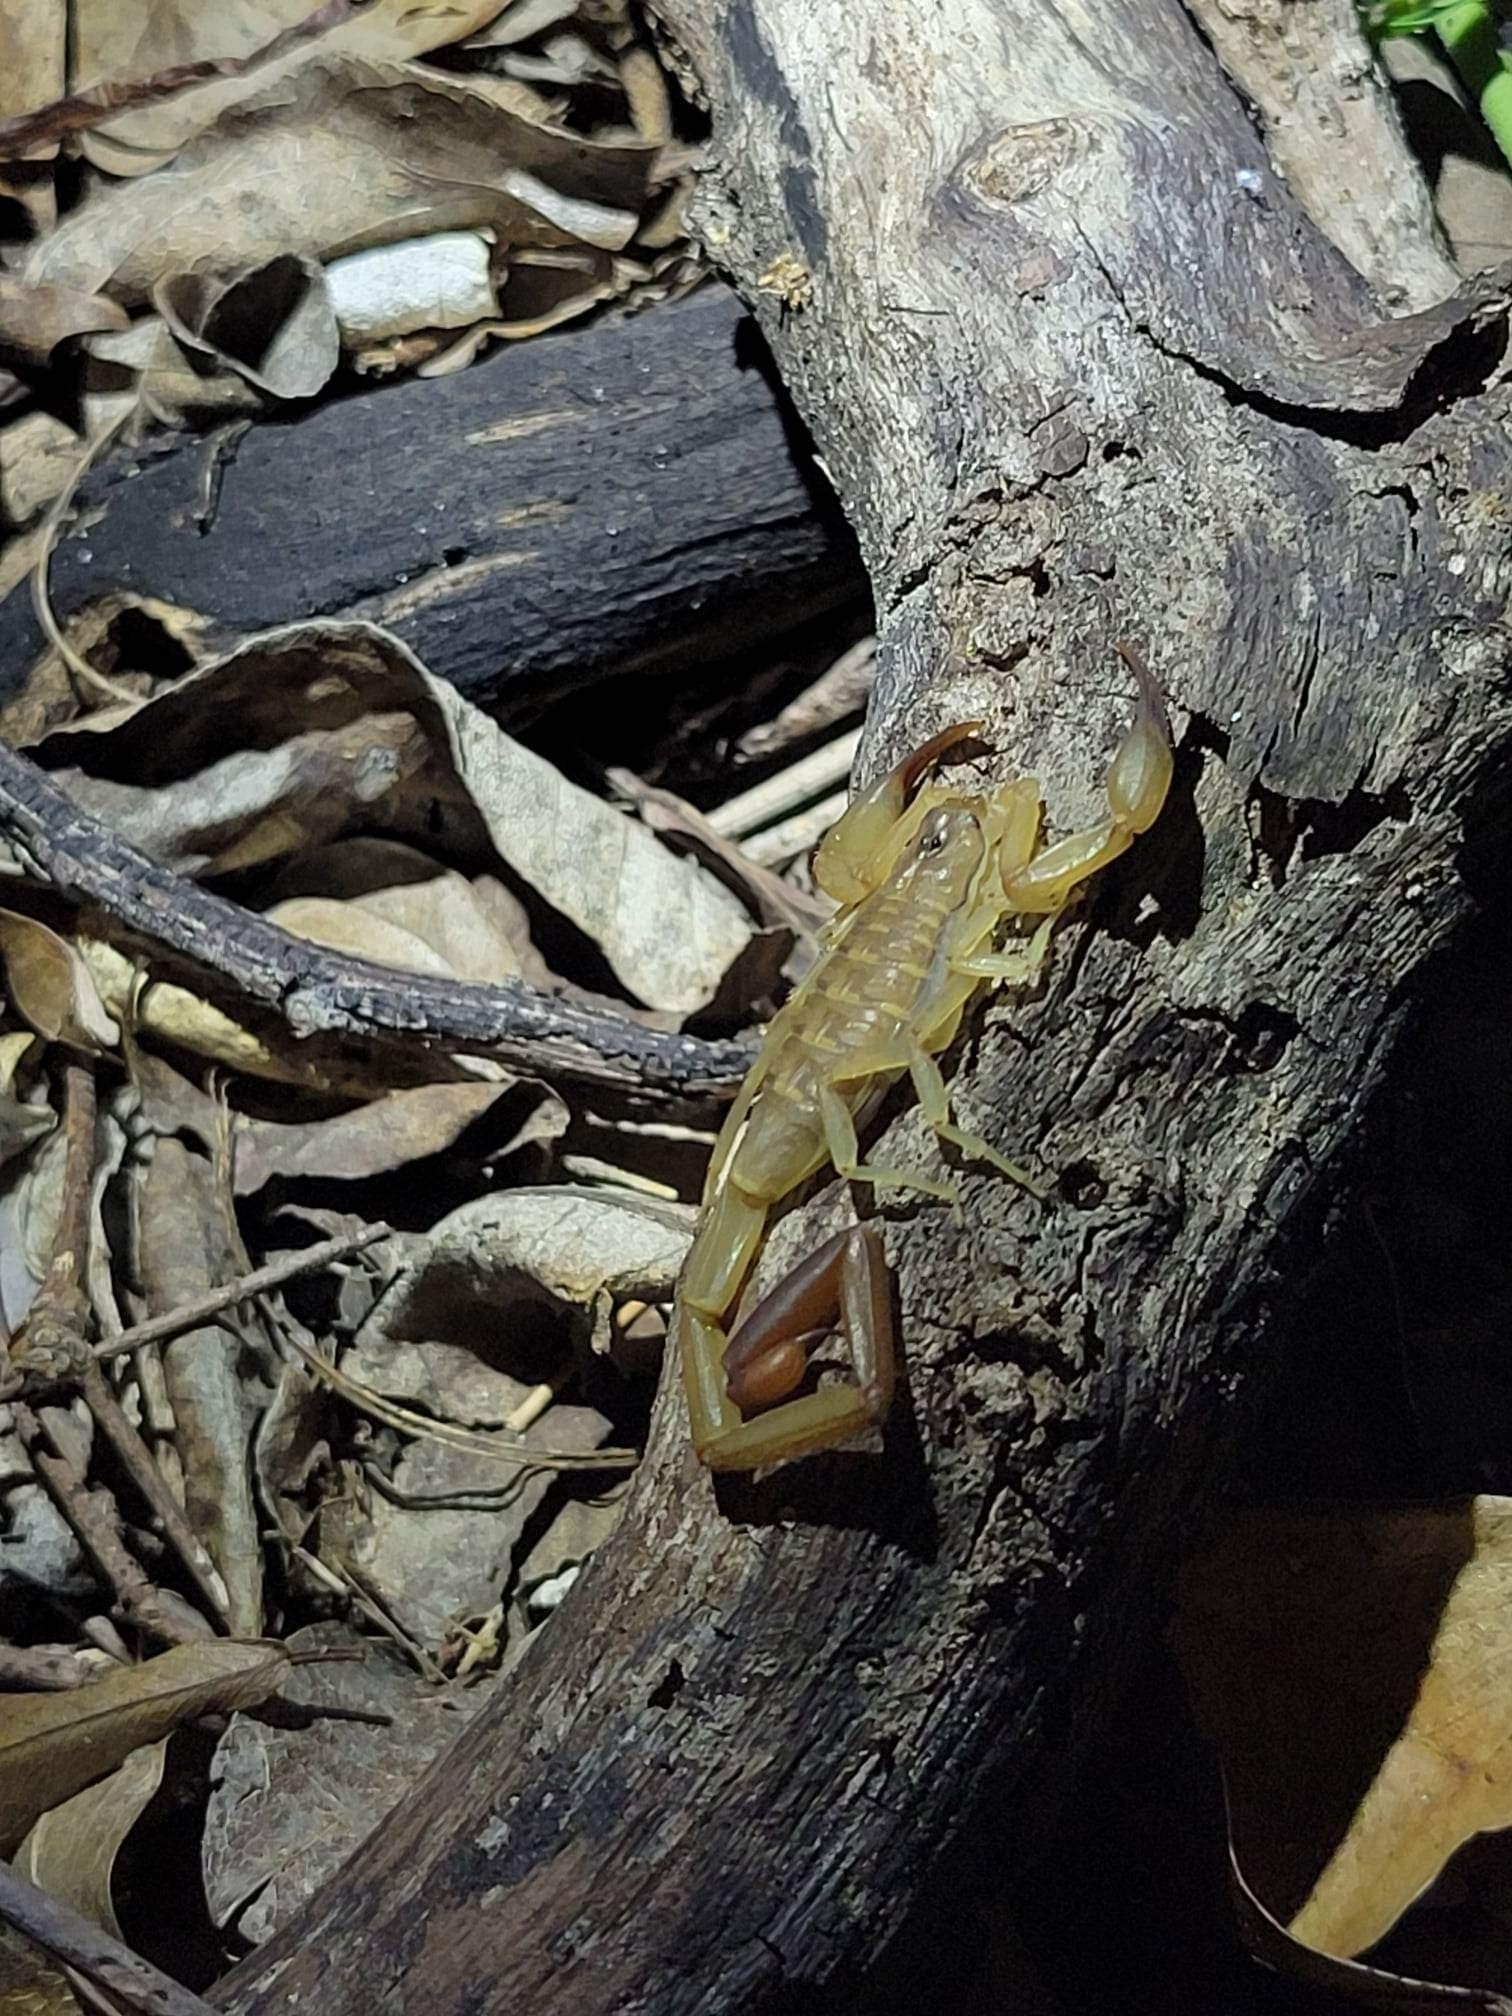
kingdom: Animalia
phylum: Arthropoda
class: Arachnida
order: Scorpiones
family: Buthidae
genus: Centruroides
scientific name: Centruroides griseus
